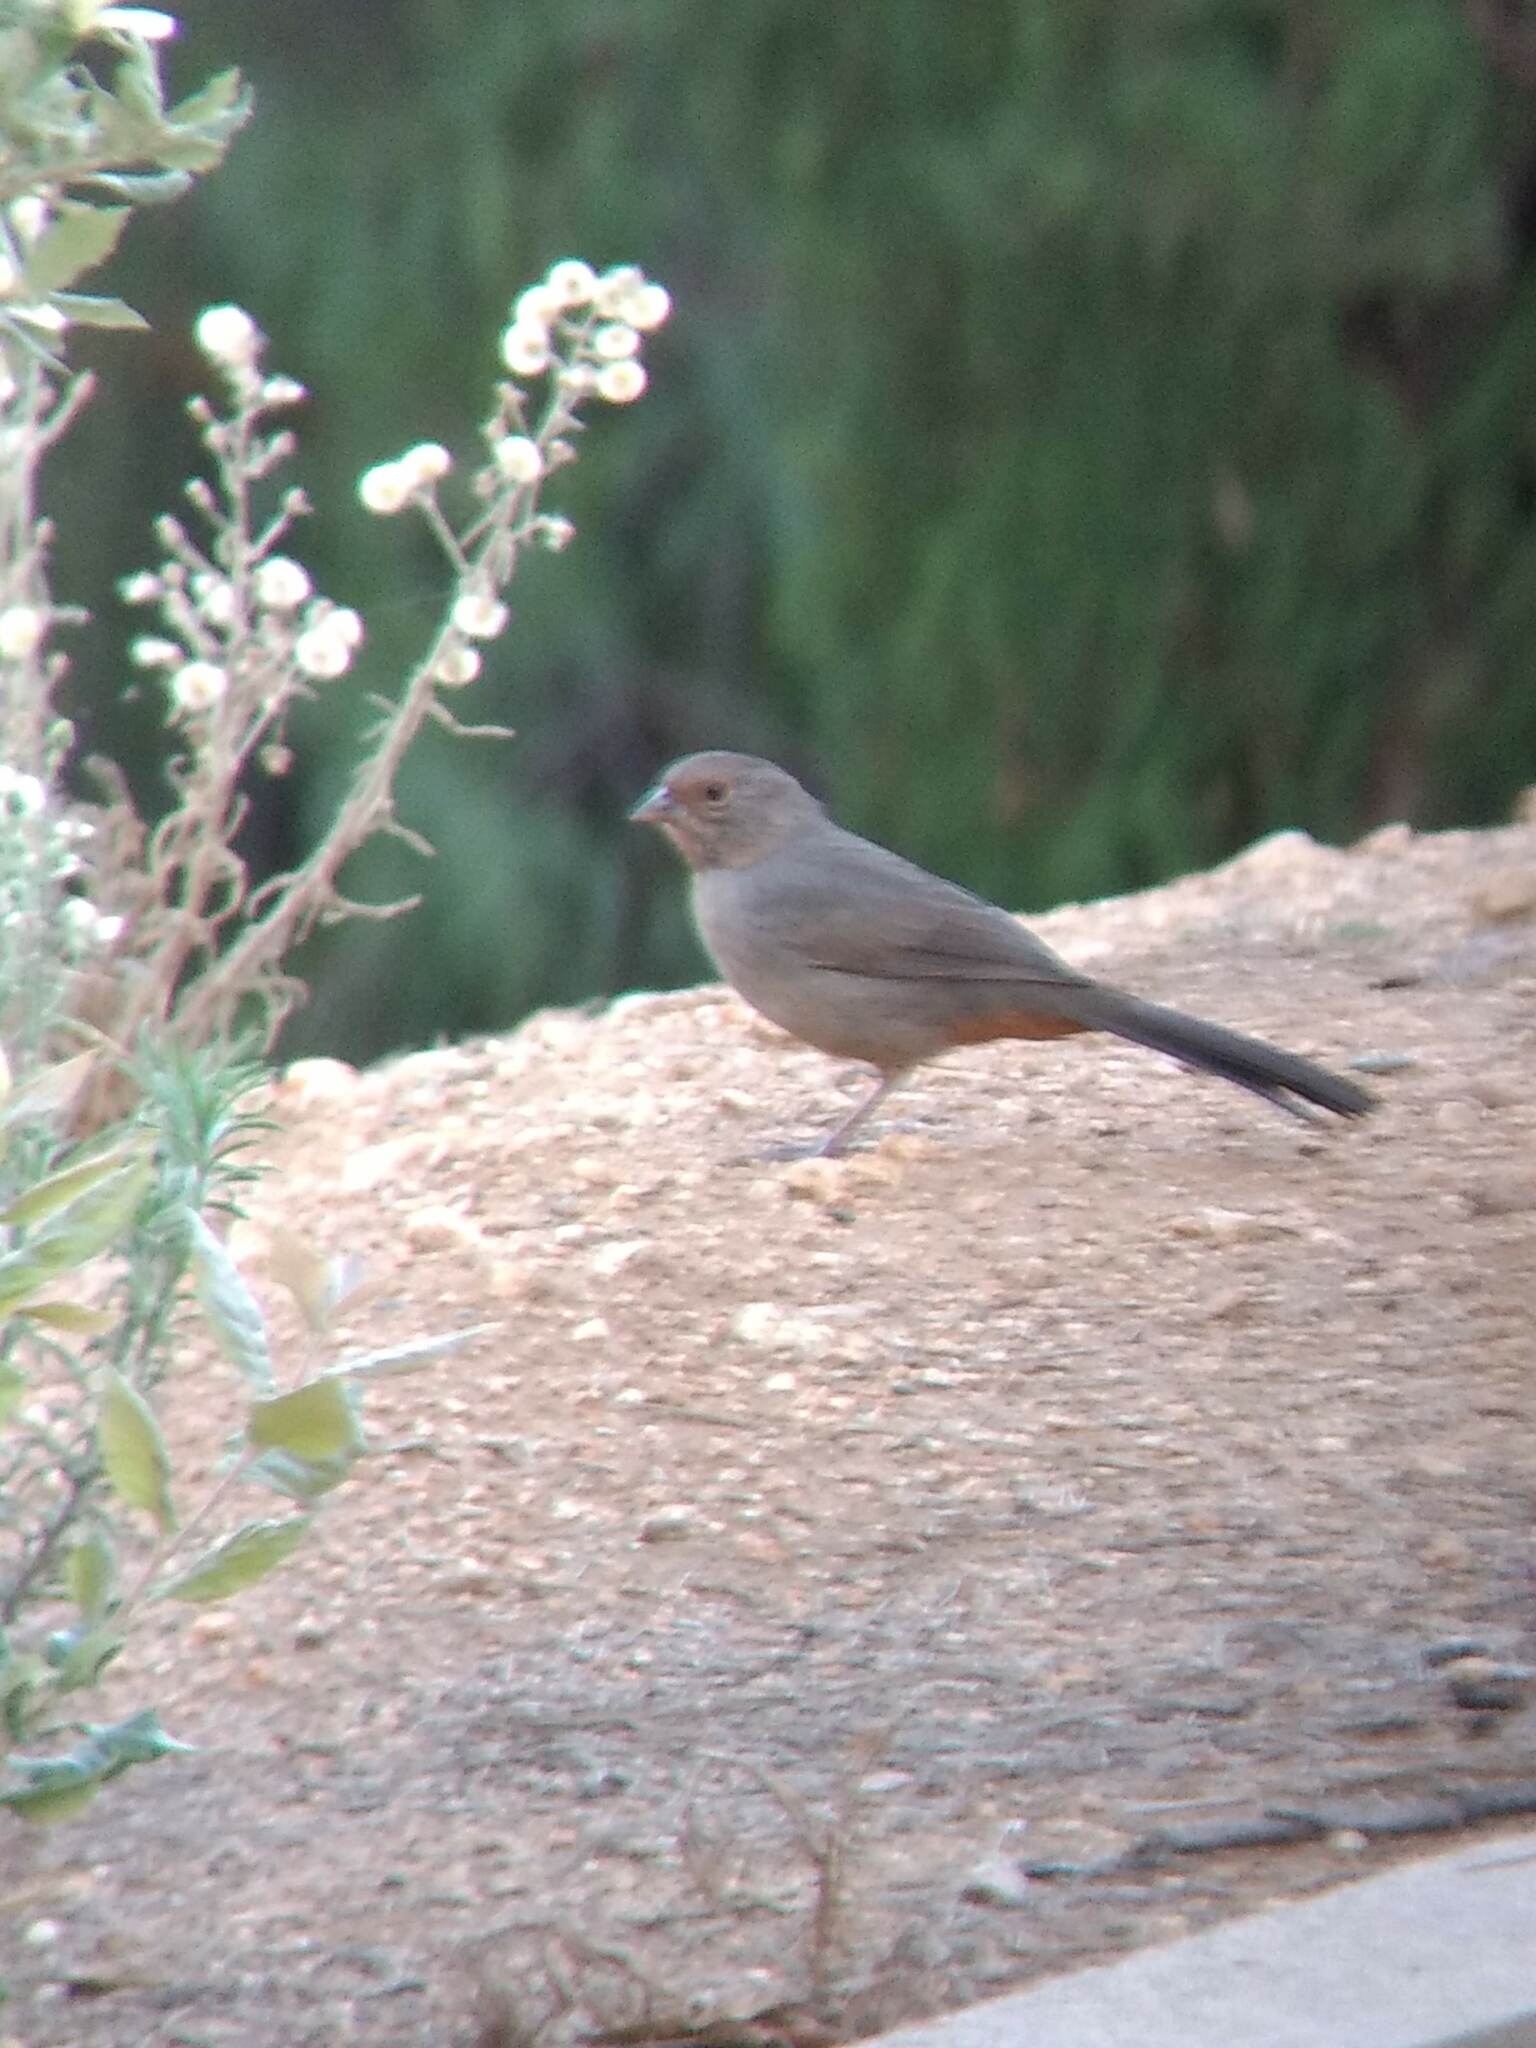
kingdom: Animalia
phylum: Chordata
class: Aves
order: Passeriformes
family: Passerellidae
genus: Melozone
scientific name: Melozone crissalis
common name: California towhee
